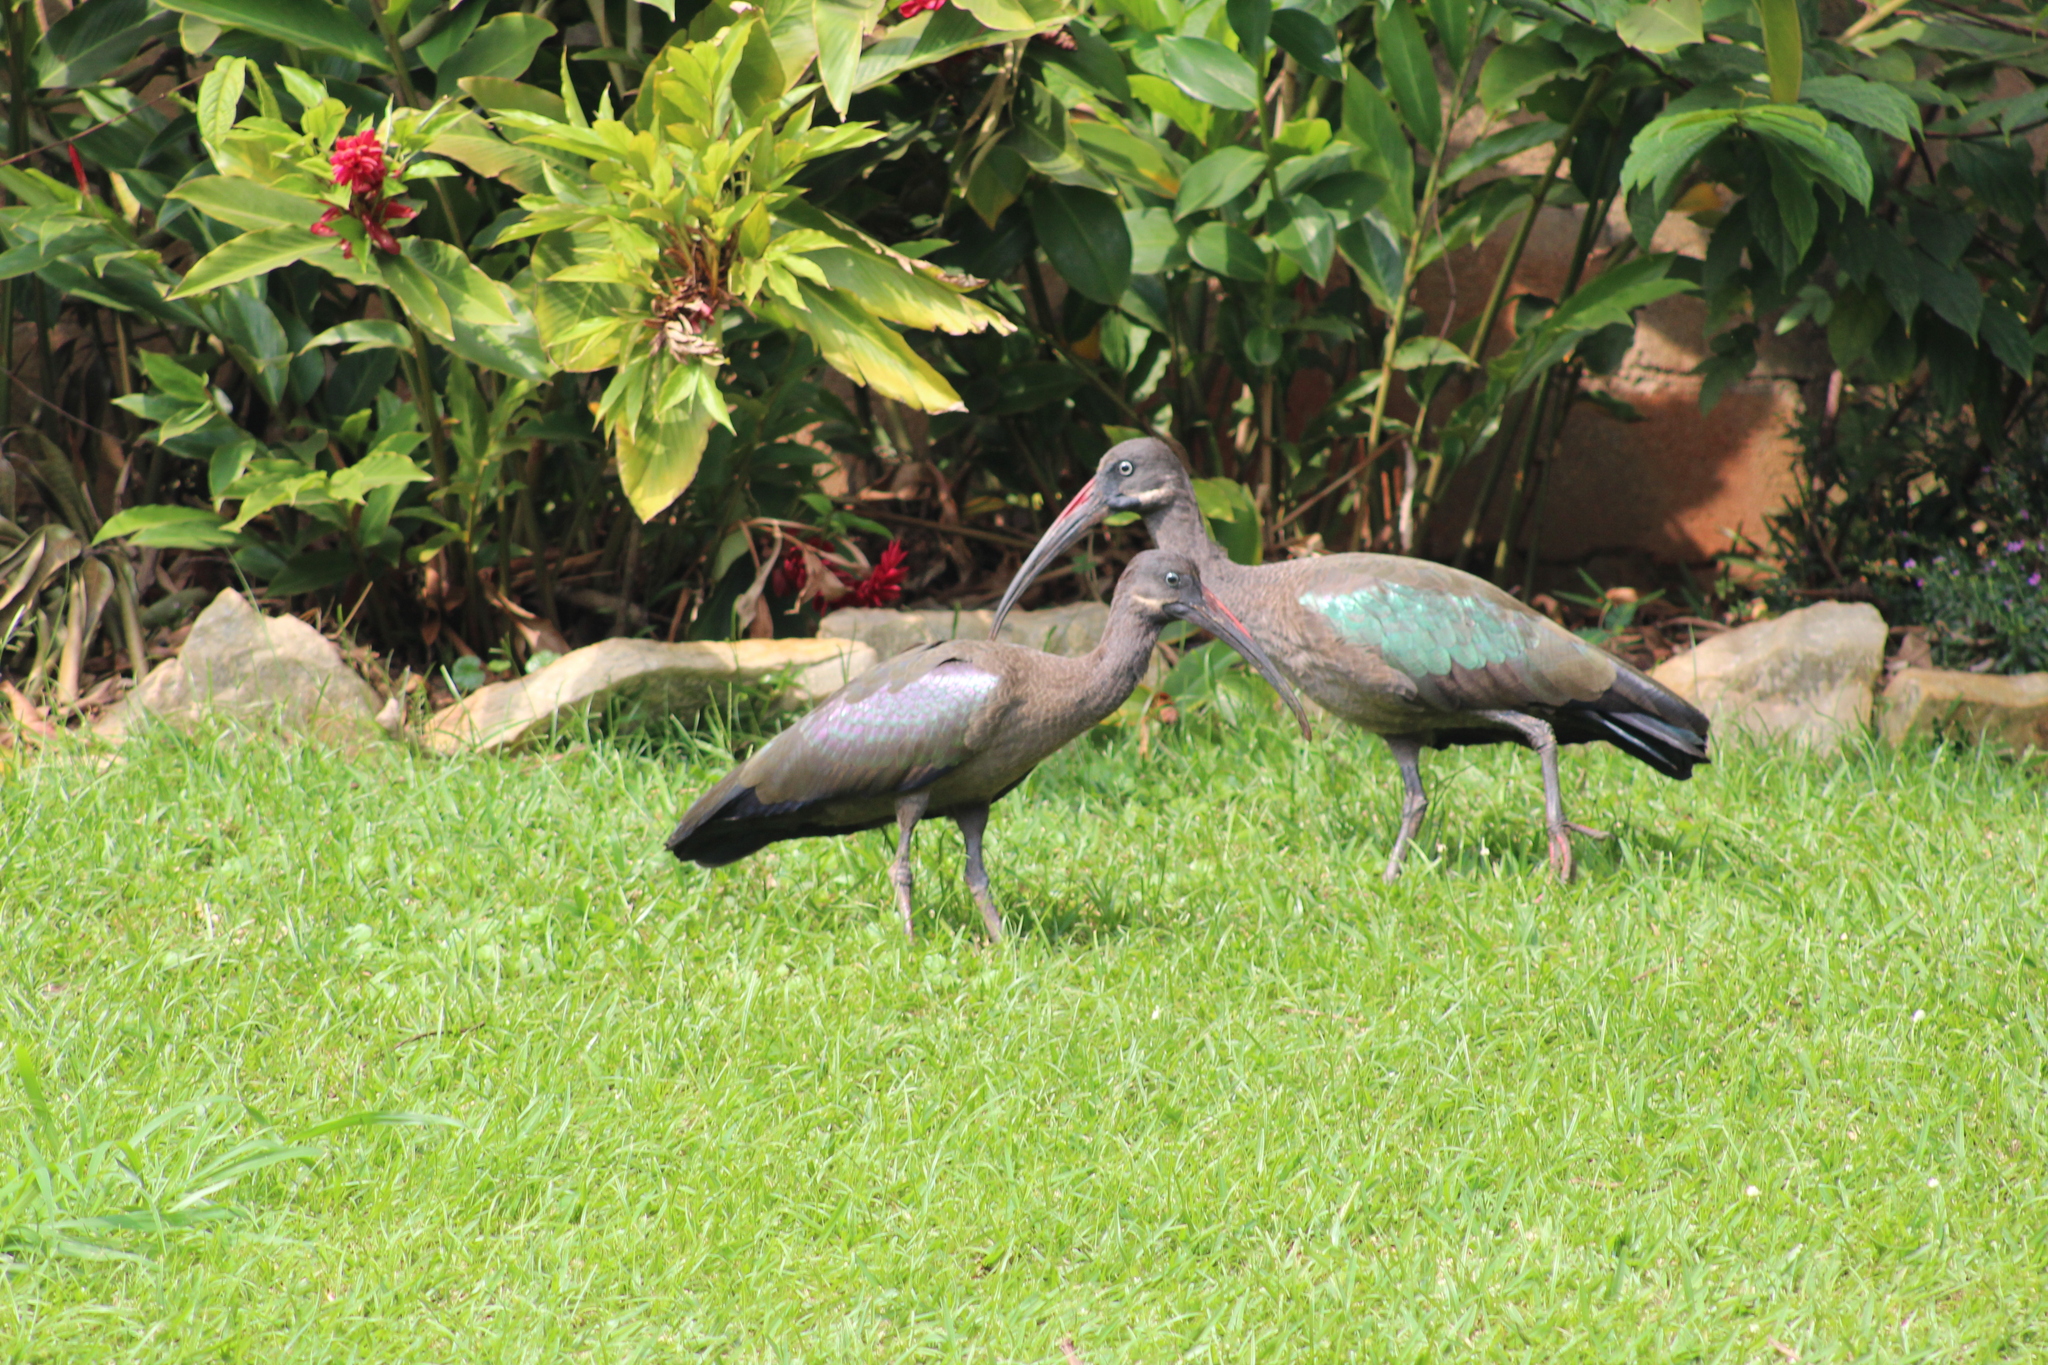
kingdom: Animalia
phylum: Chordata
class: Aves
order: Pelecaniformes
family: Threskiornithidae
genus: Bostrychia
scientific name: Bostrychia hagedash
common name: Hadada ibis
